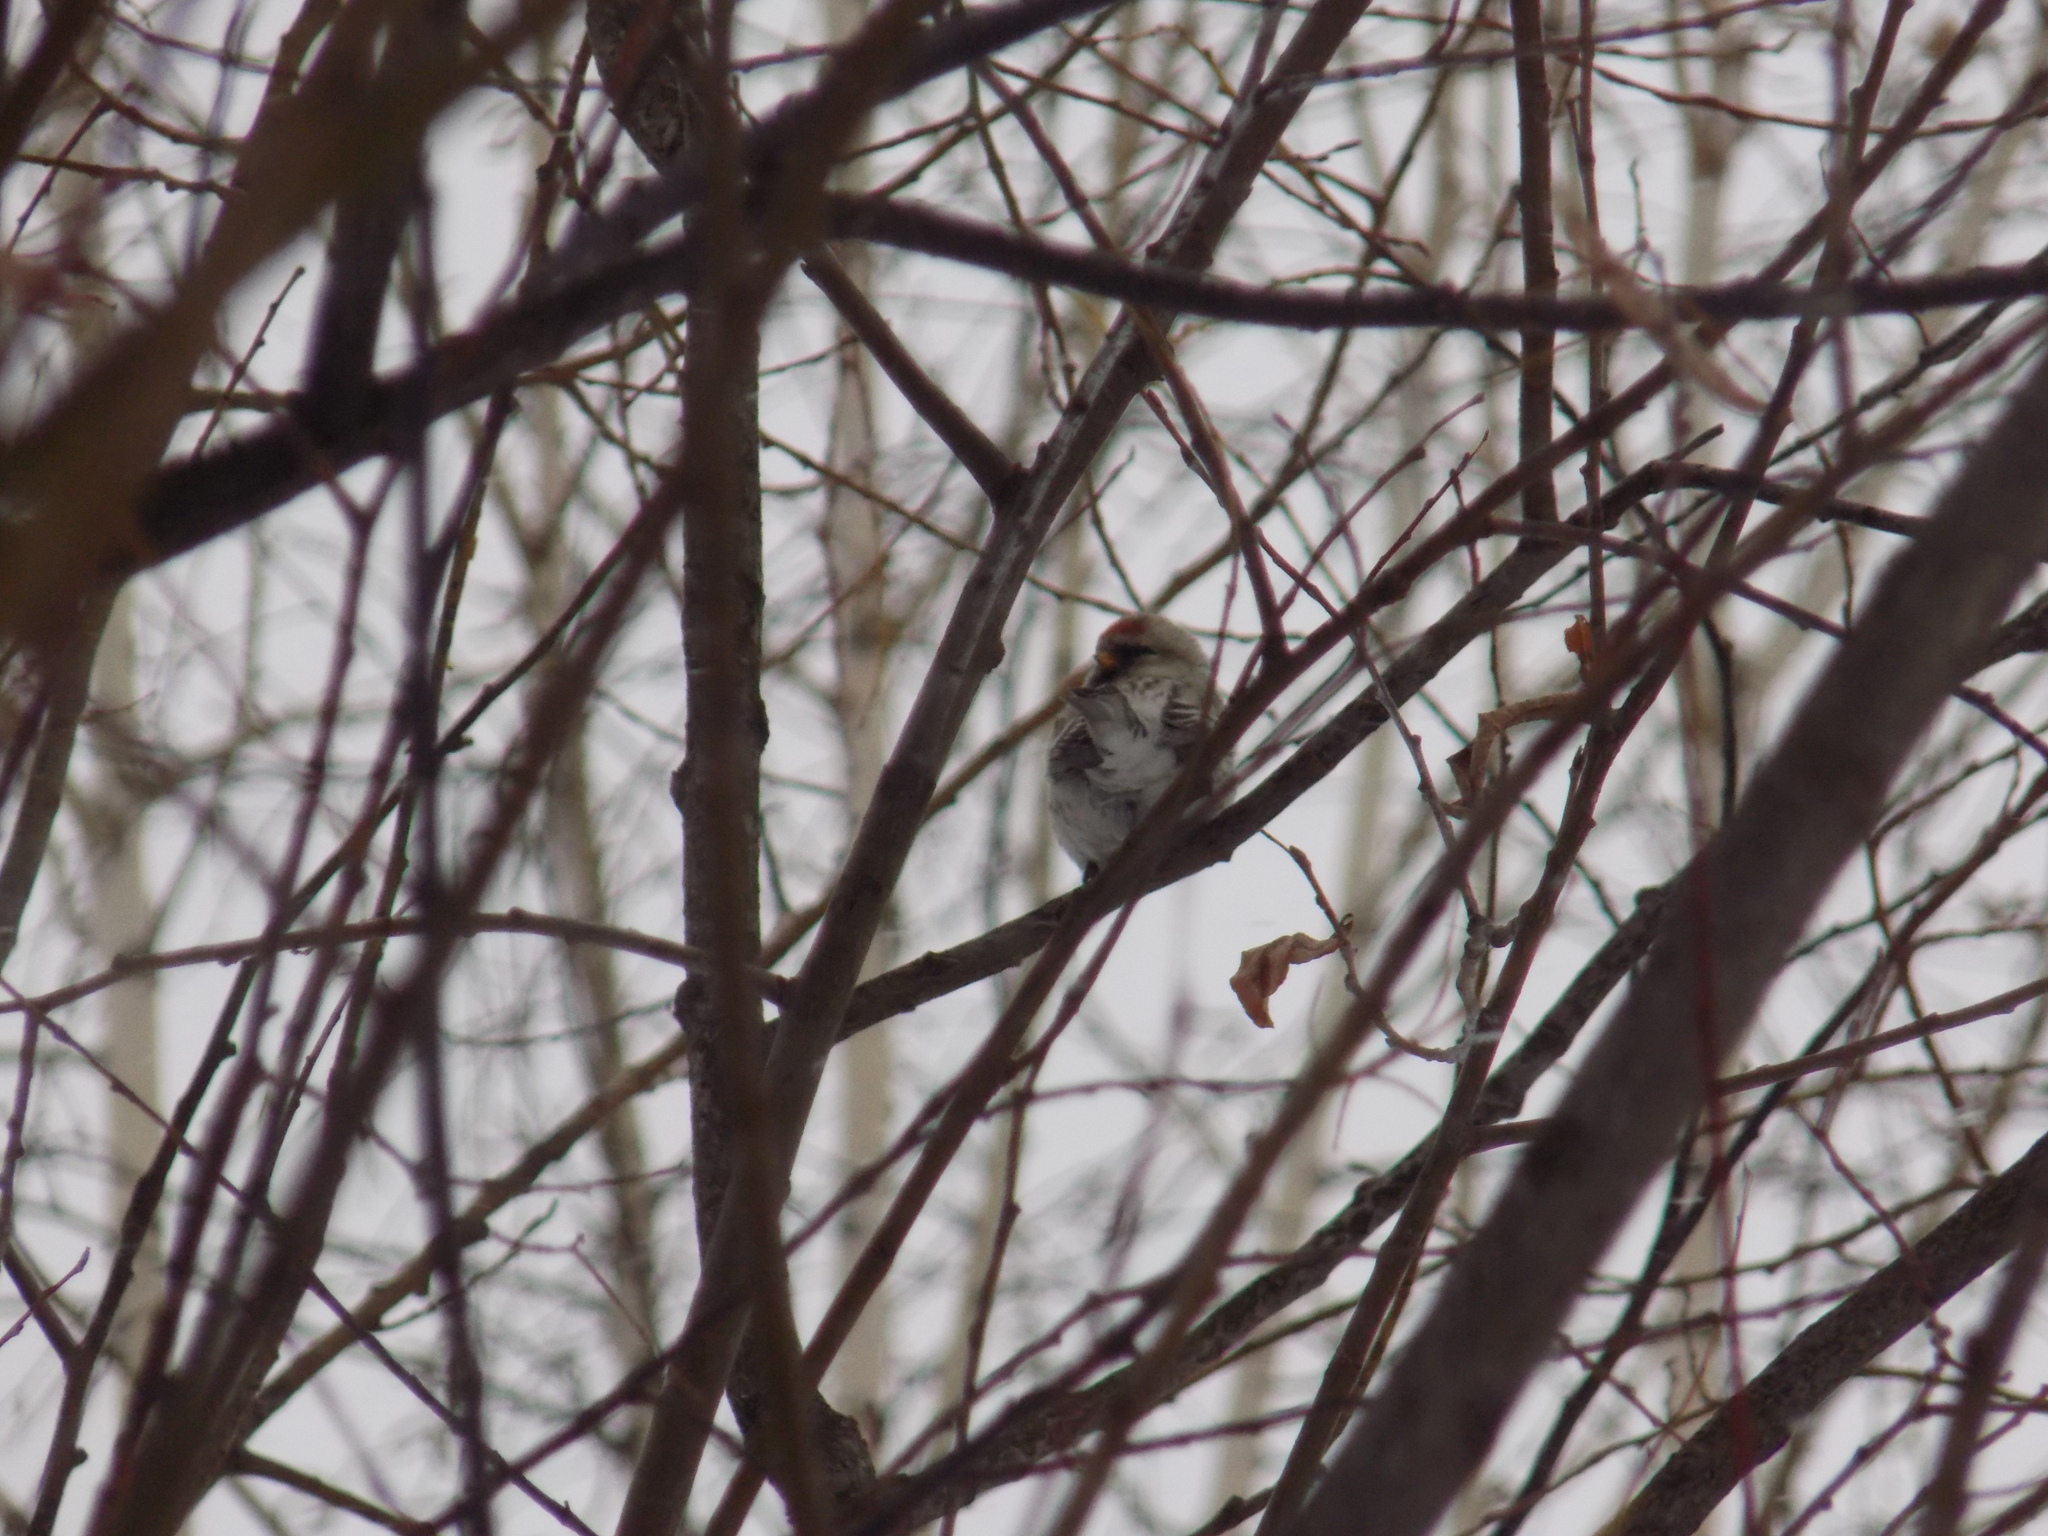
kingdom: Animalia
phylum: Chordata
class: Aves
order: Passeriformes
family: Fringillidae
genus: Acanthis
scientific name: Acanthis hornemanni
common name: Arctic redpoll
